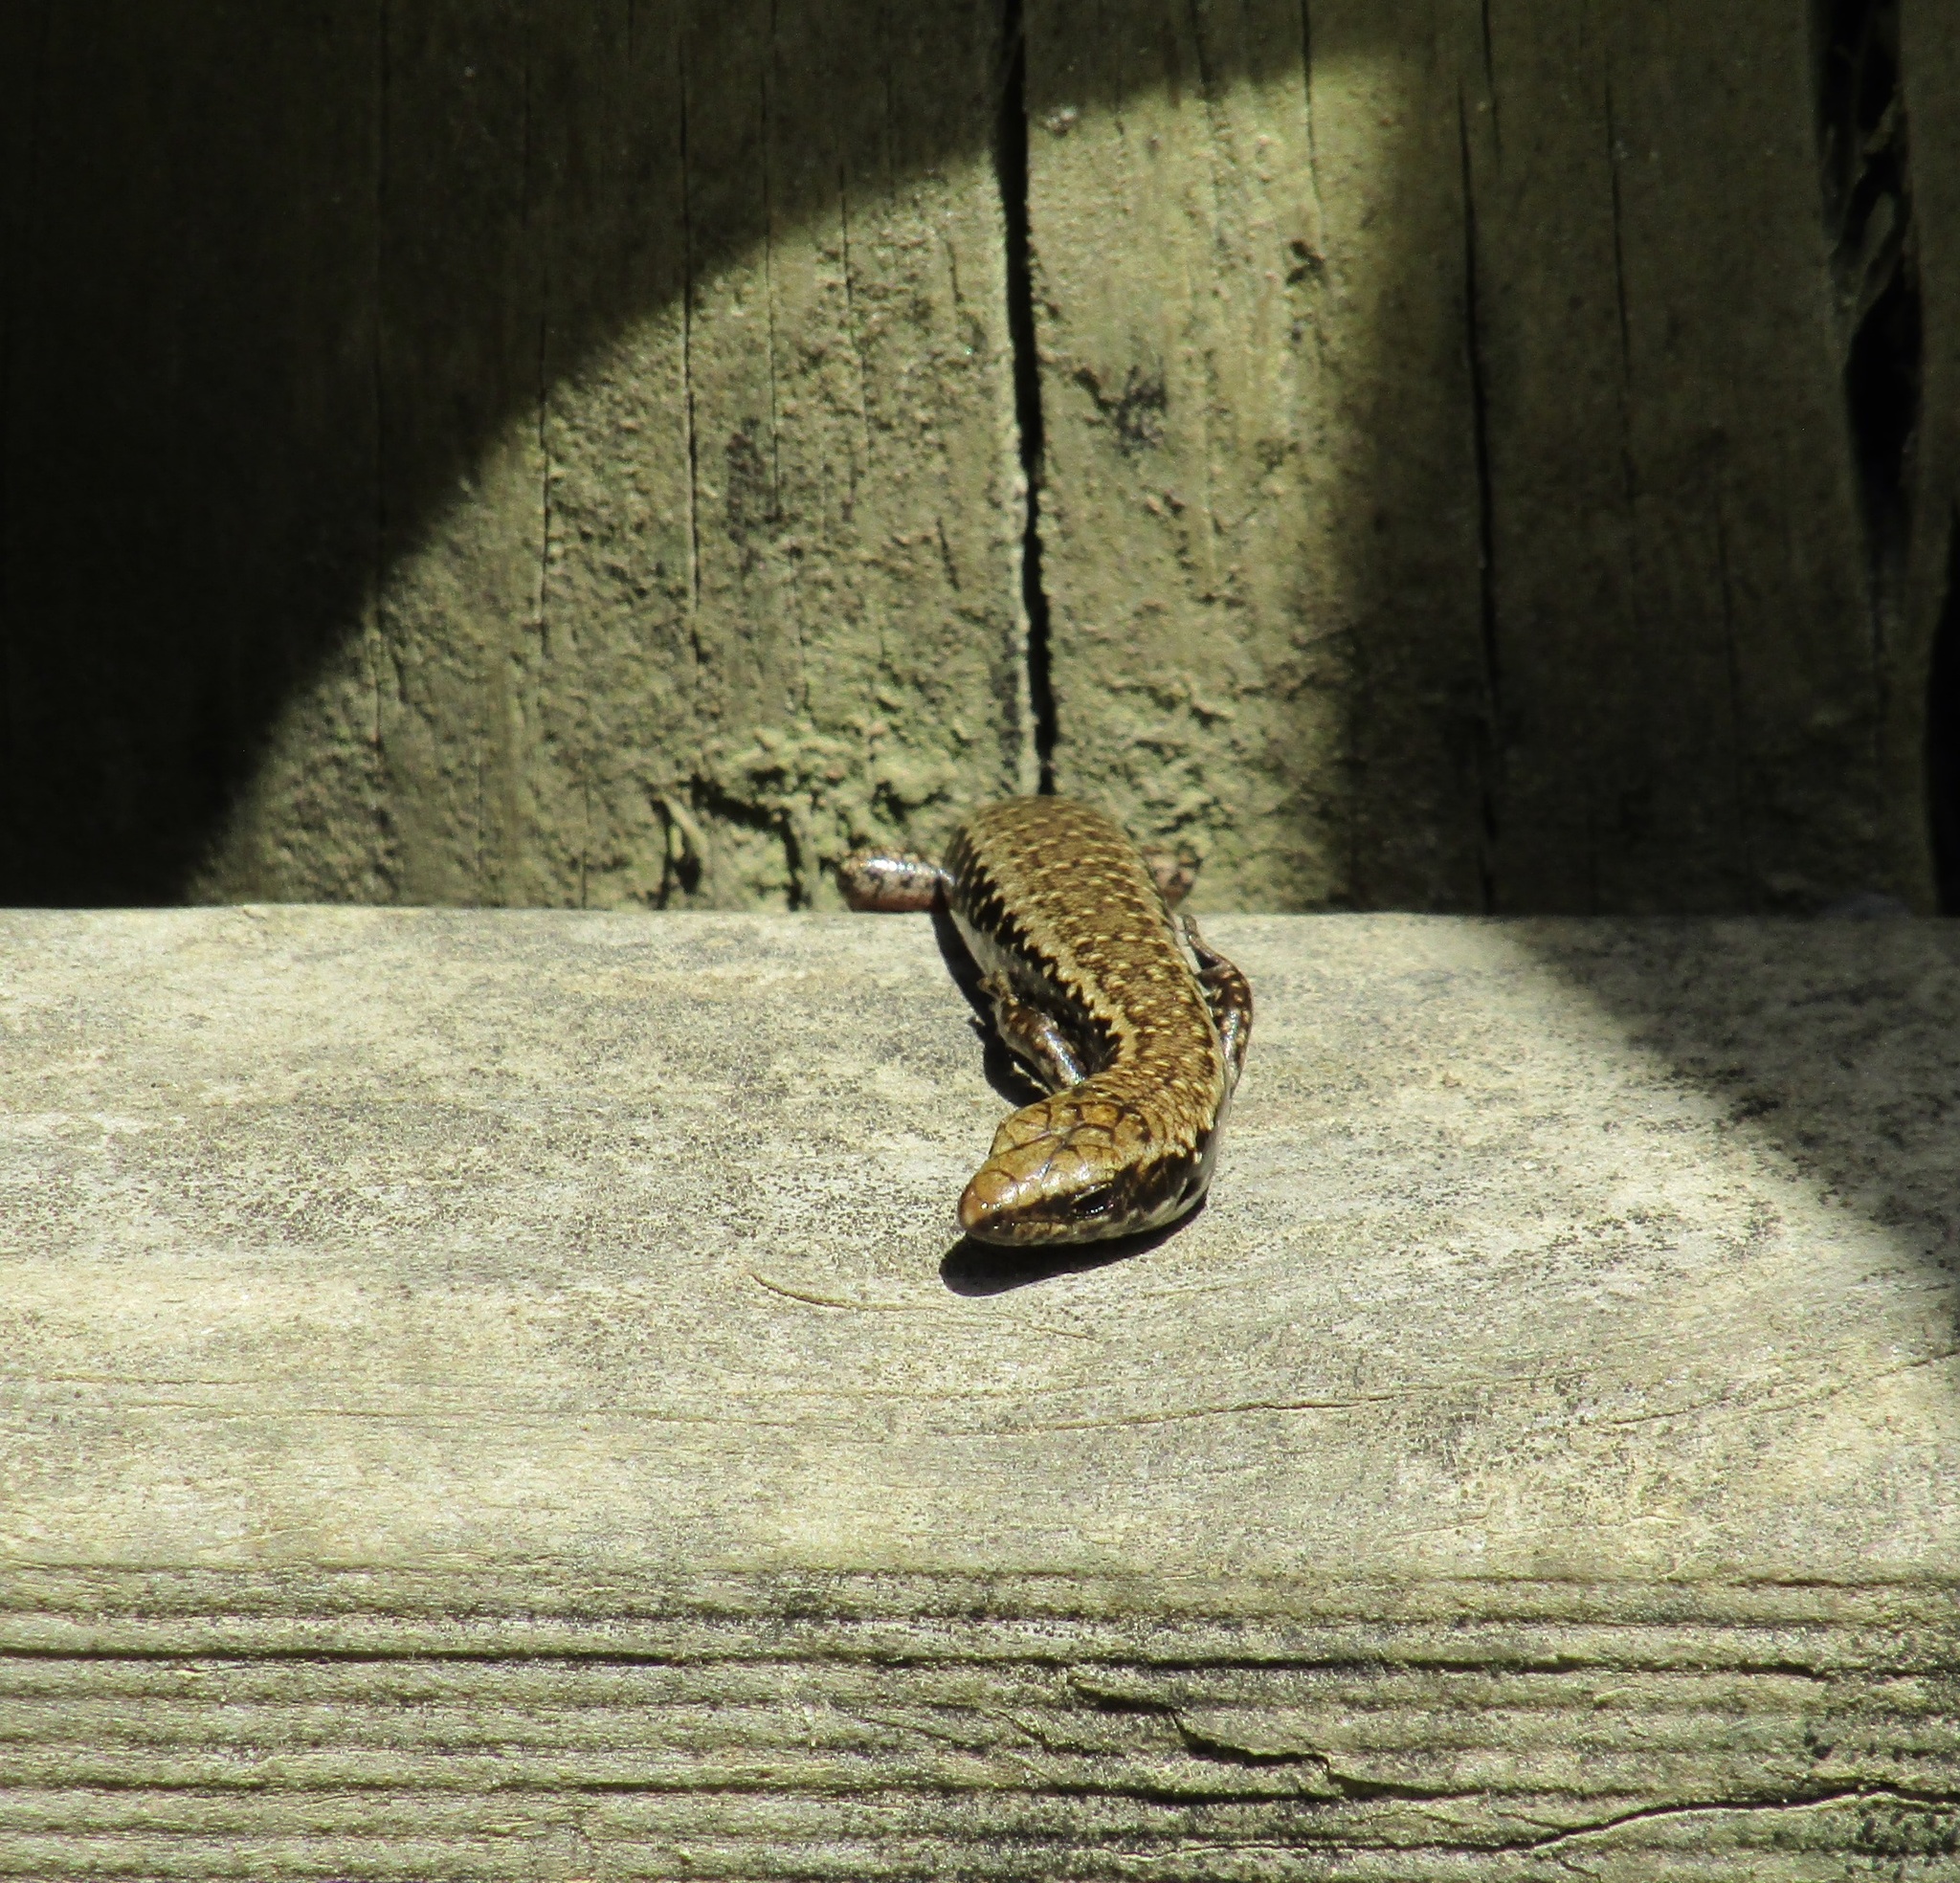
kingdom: Animalia
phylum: Chordata
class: Squamata
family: Scincidae
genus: Oligosoma
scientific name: Oligosoma kokowai
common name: Northern spotted skink
